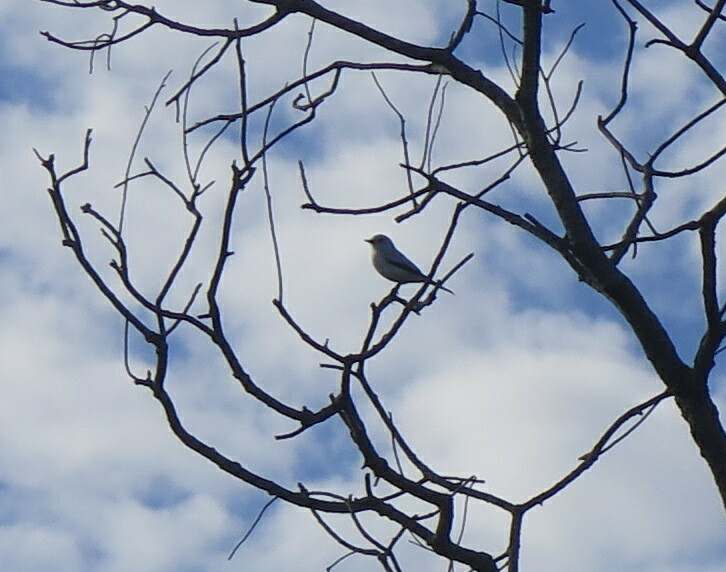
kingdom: Animalia
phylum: Chordata
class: Aves
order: Passeriformes
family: Tyrannidae
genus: Xolmis
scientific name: Xolmis irupero
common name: White monjita
